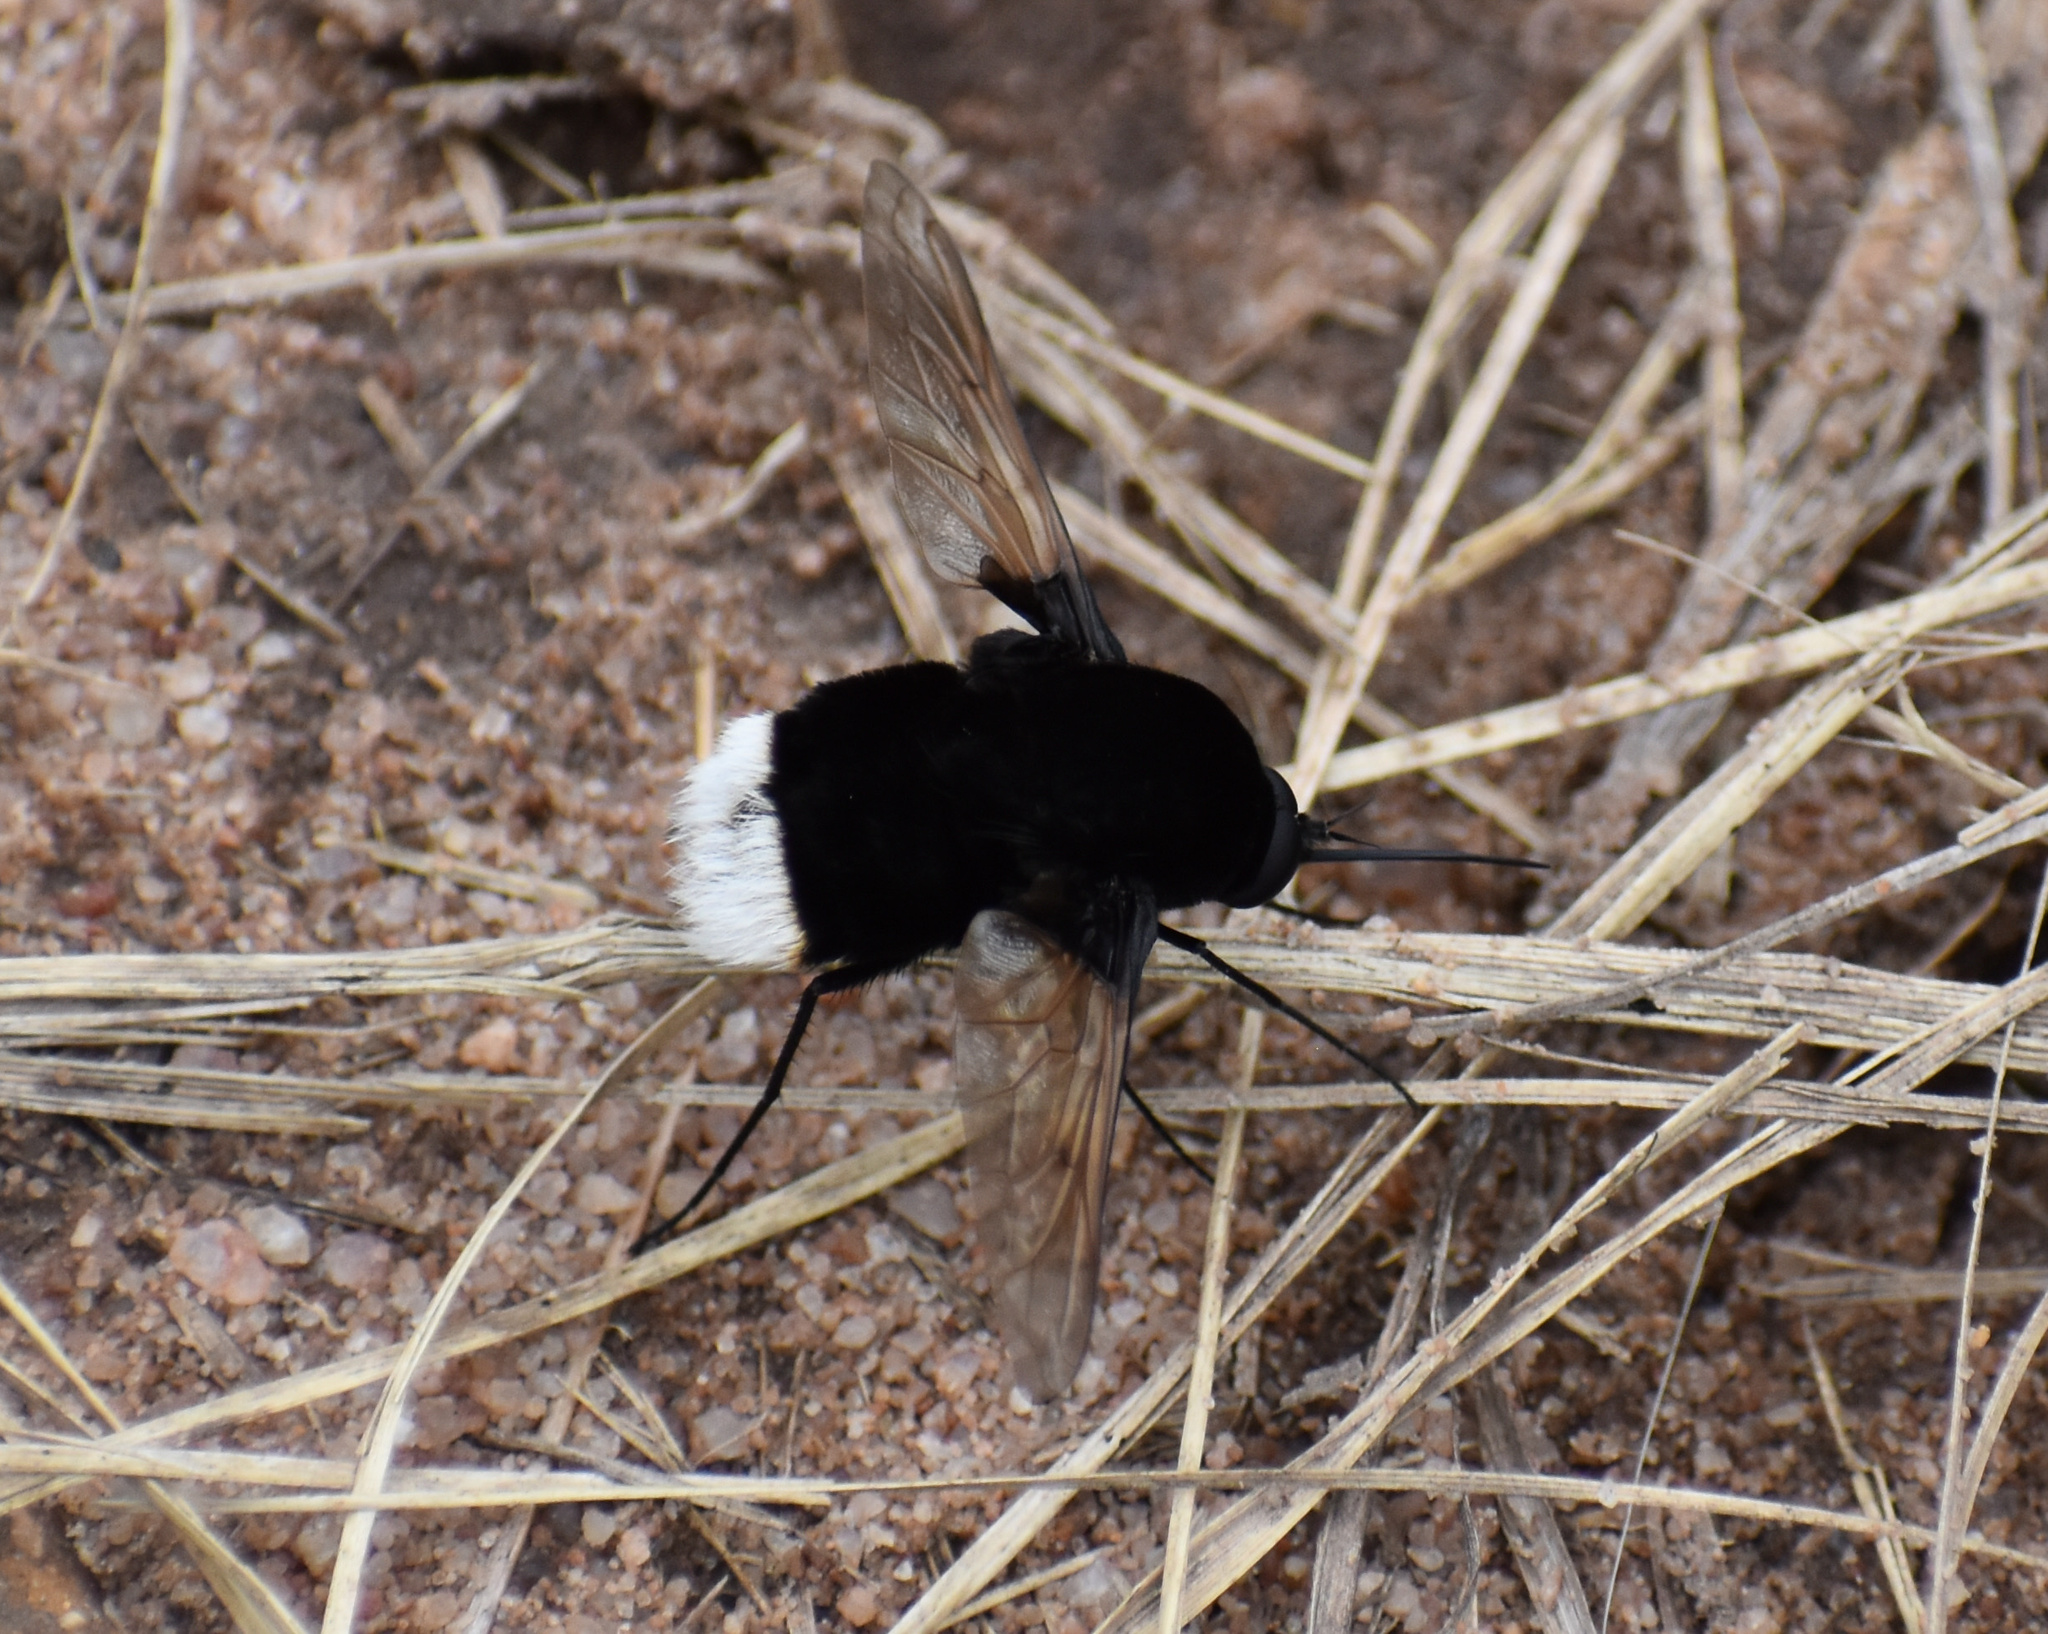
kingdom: Animalia
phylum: Arthropoda
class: Insecta
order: Diptera
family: Bombyliidae
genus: Bombomyia
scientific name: Bombomyia discoidea
